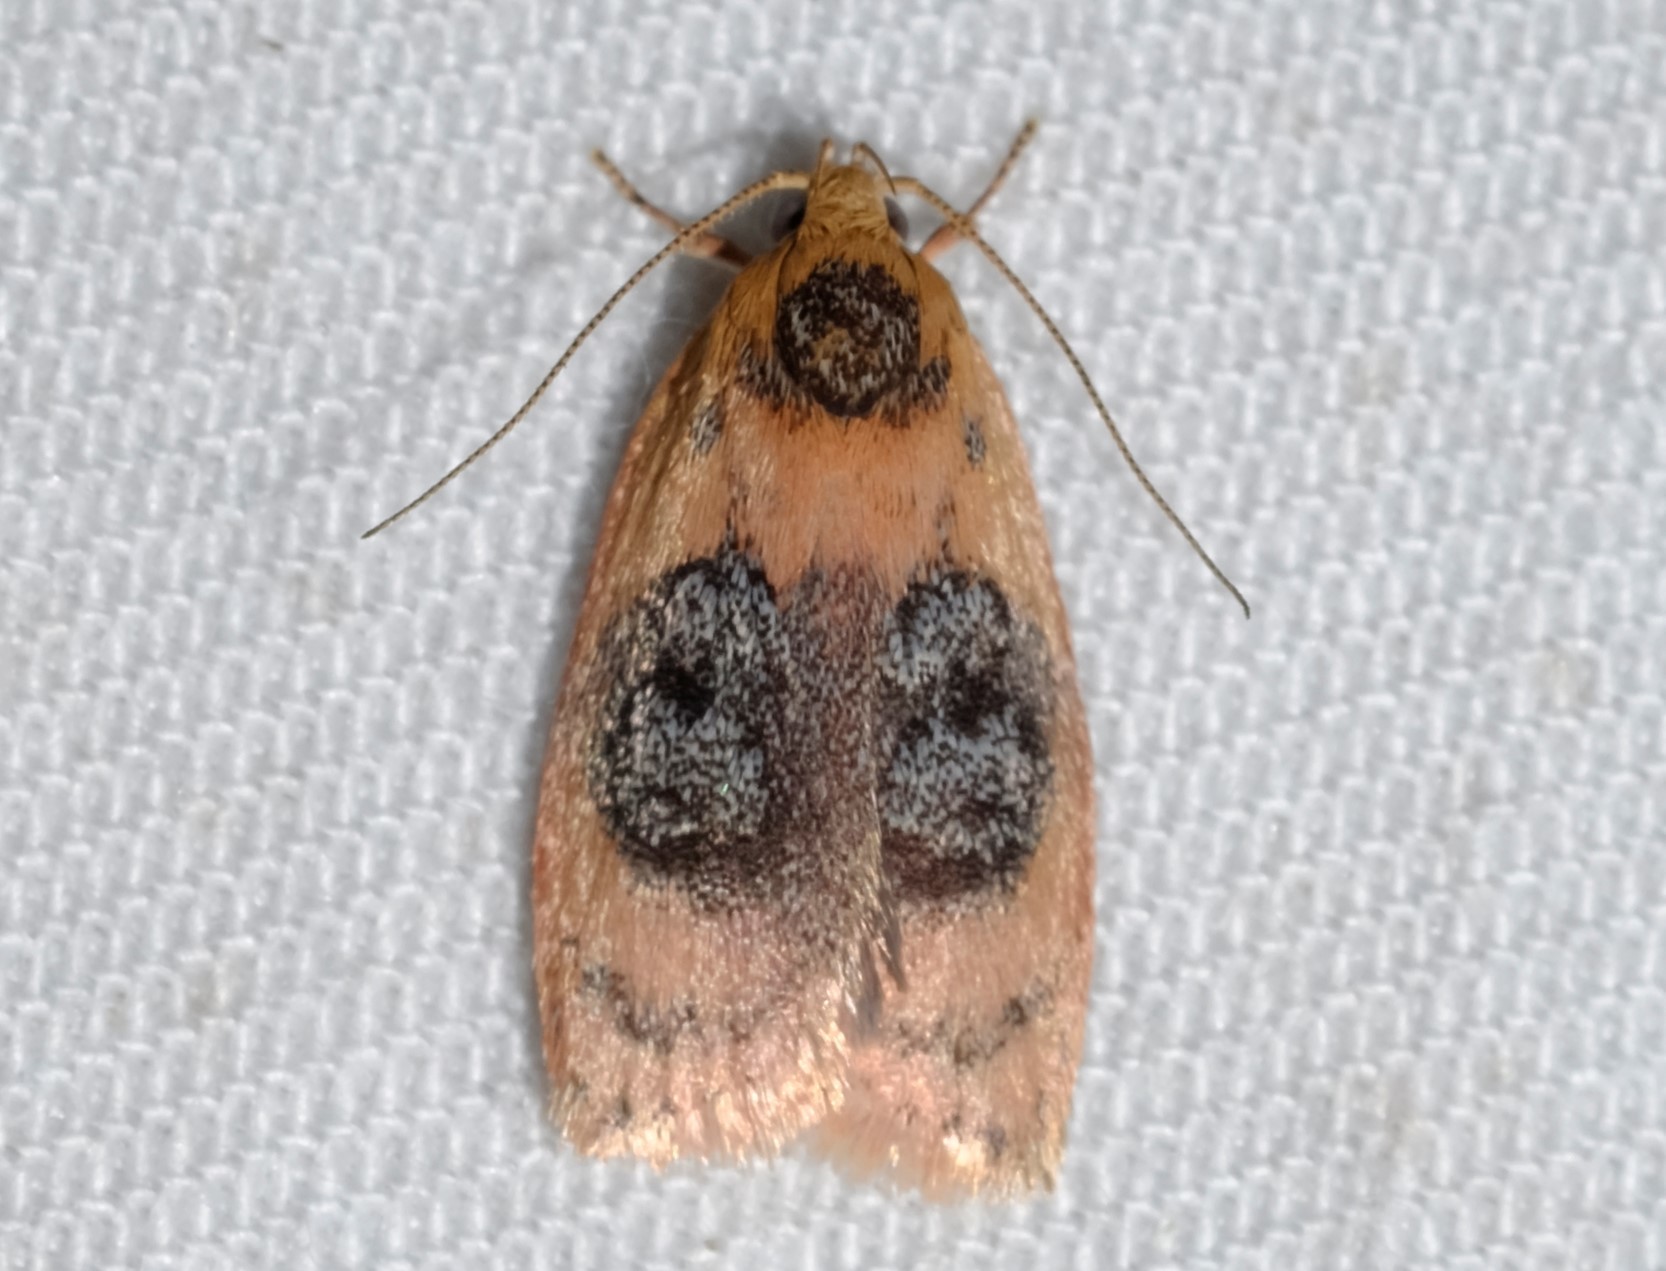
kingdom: Animalia
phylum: Arthropoda
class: Insecta
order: Lepidoptera
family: Oecophoridae
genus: Garrha
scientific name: Garrha ocellifera
